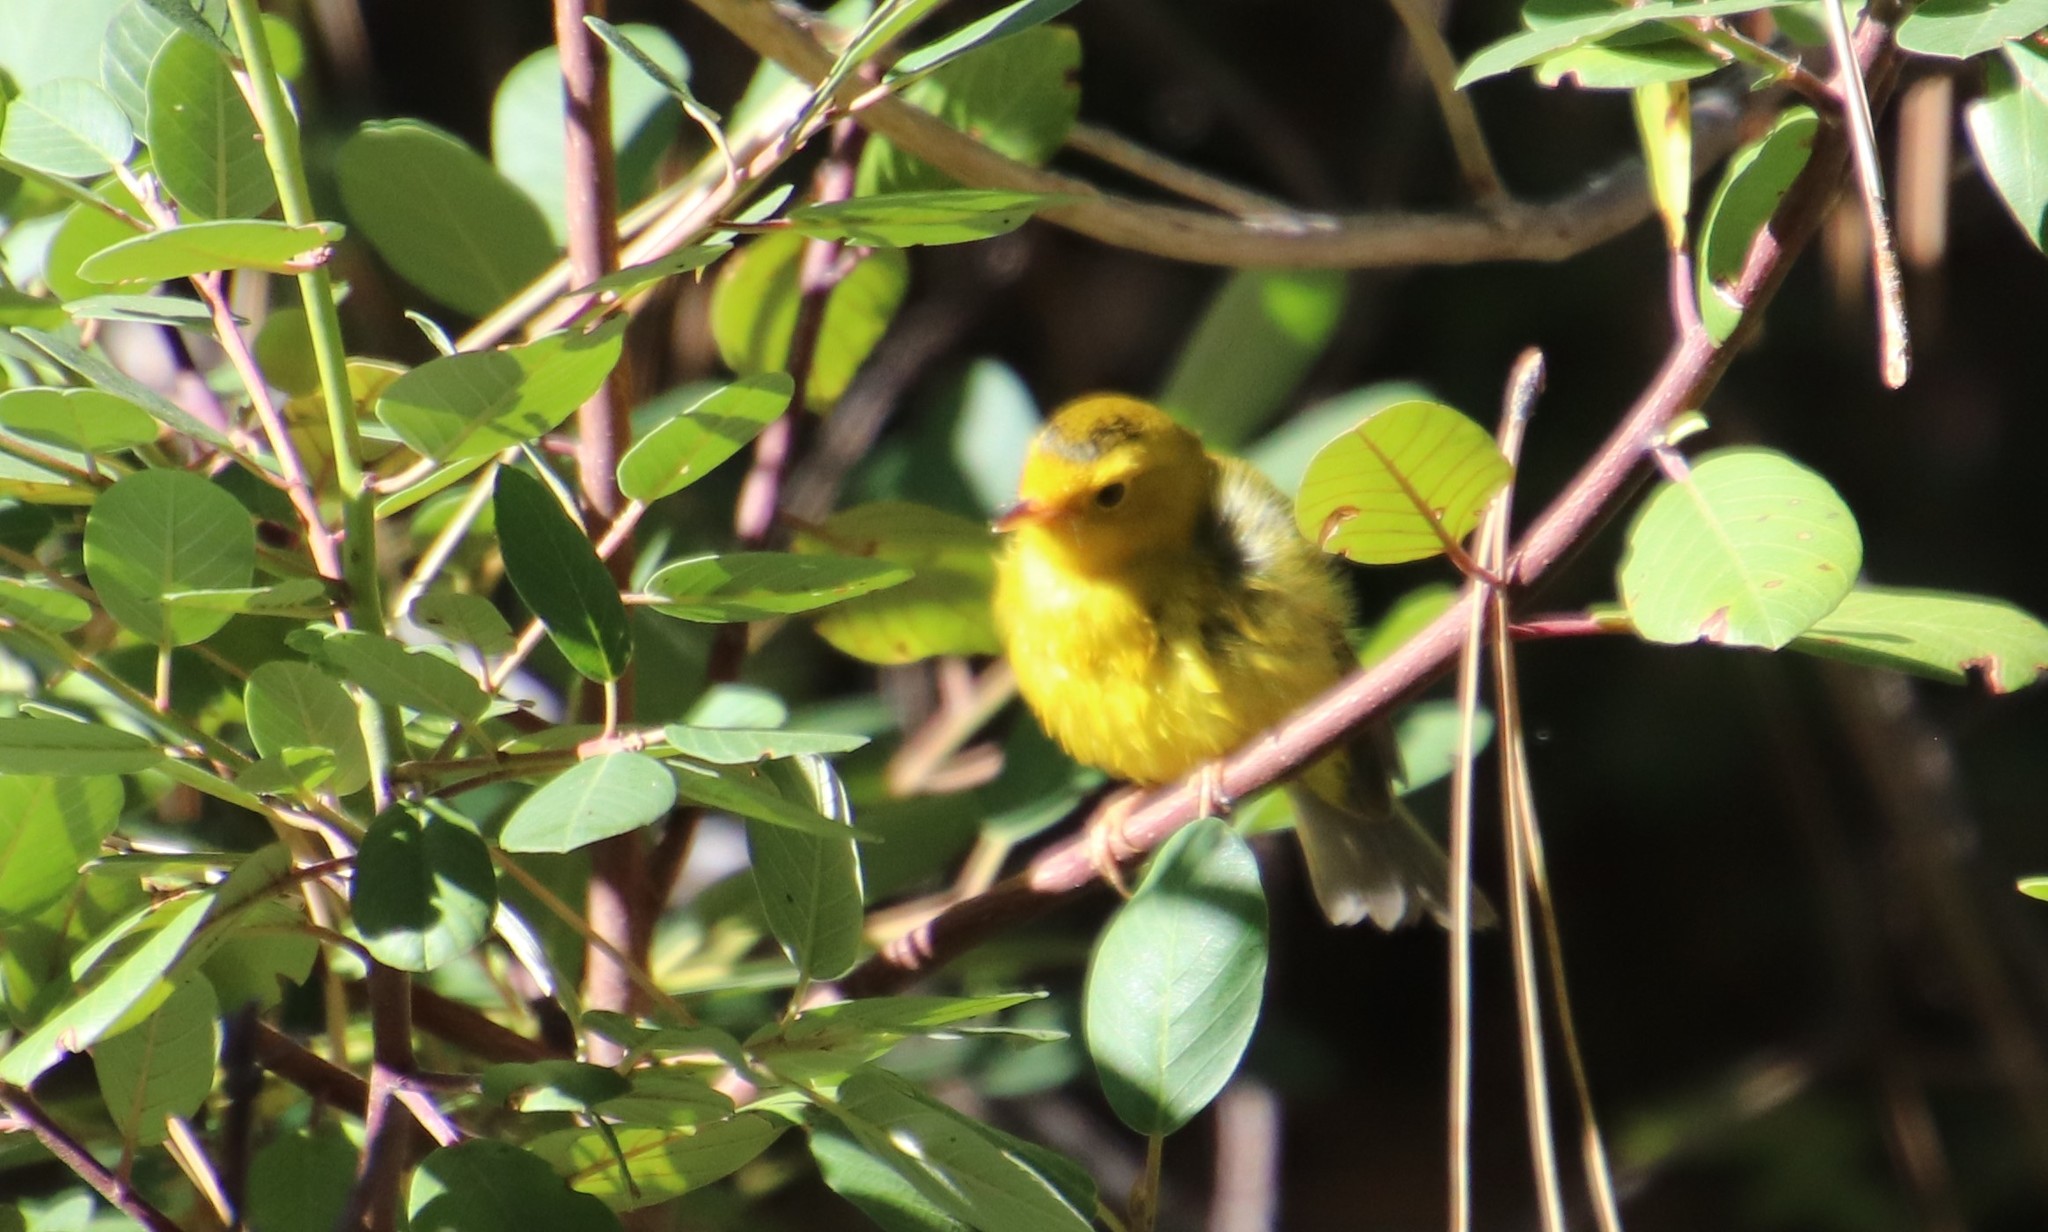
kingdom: Animalia
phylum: Chordata
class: Aves
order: Passeriformes
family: Parulidae
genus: Cardellina
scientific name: Cardellina pusilla
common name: Wilson's warbler
